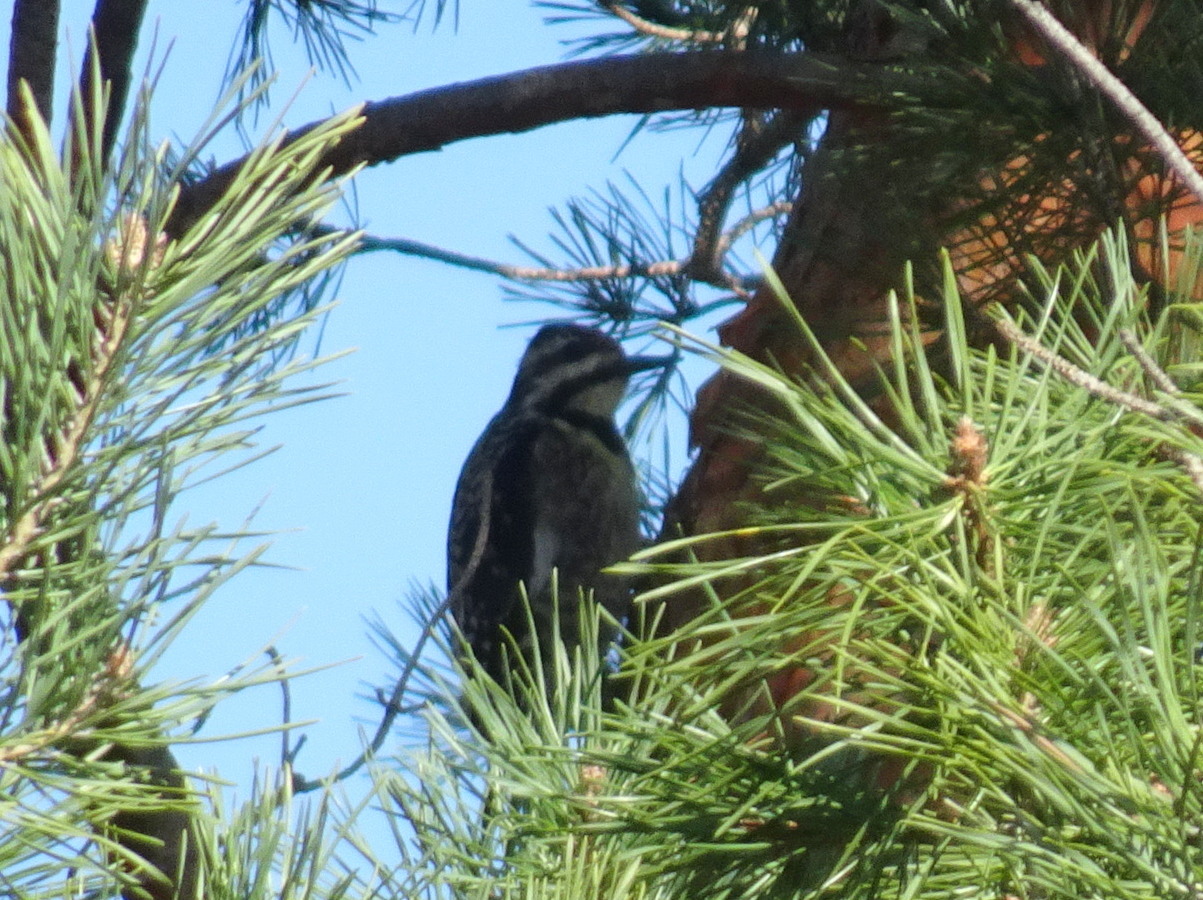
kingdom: Animalia
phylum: Chordata
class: Aves
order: Piciformes
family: Picidae
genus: Sphyrapicus
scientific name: Sphyrapicus varius
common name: Yellow-bellied sapsucker
